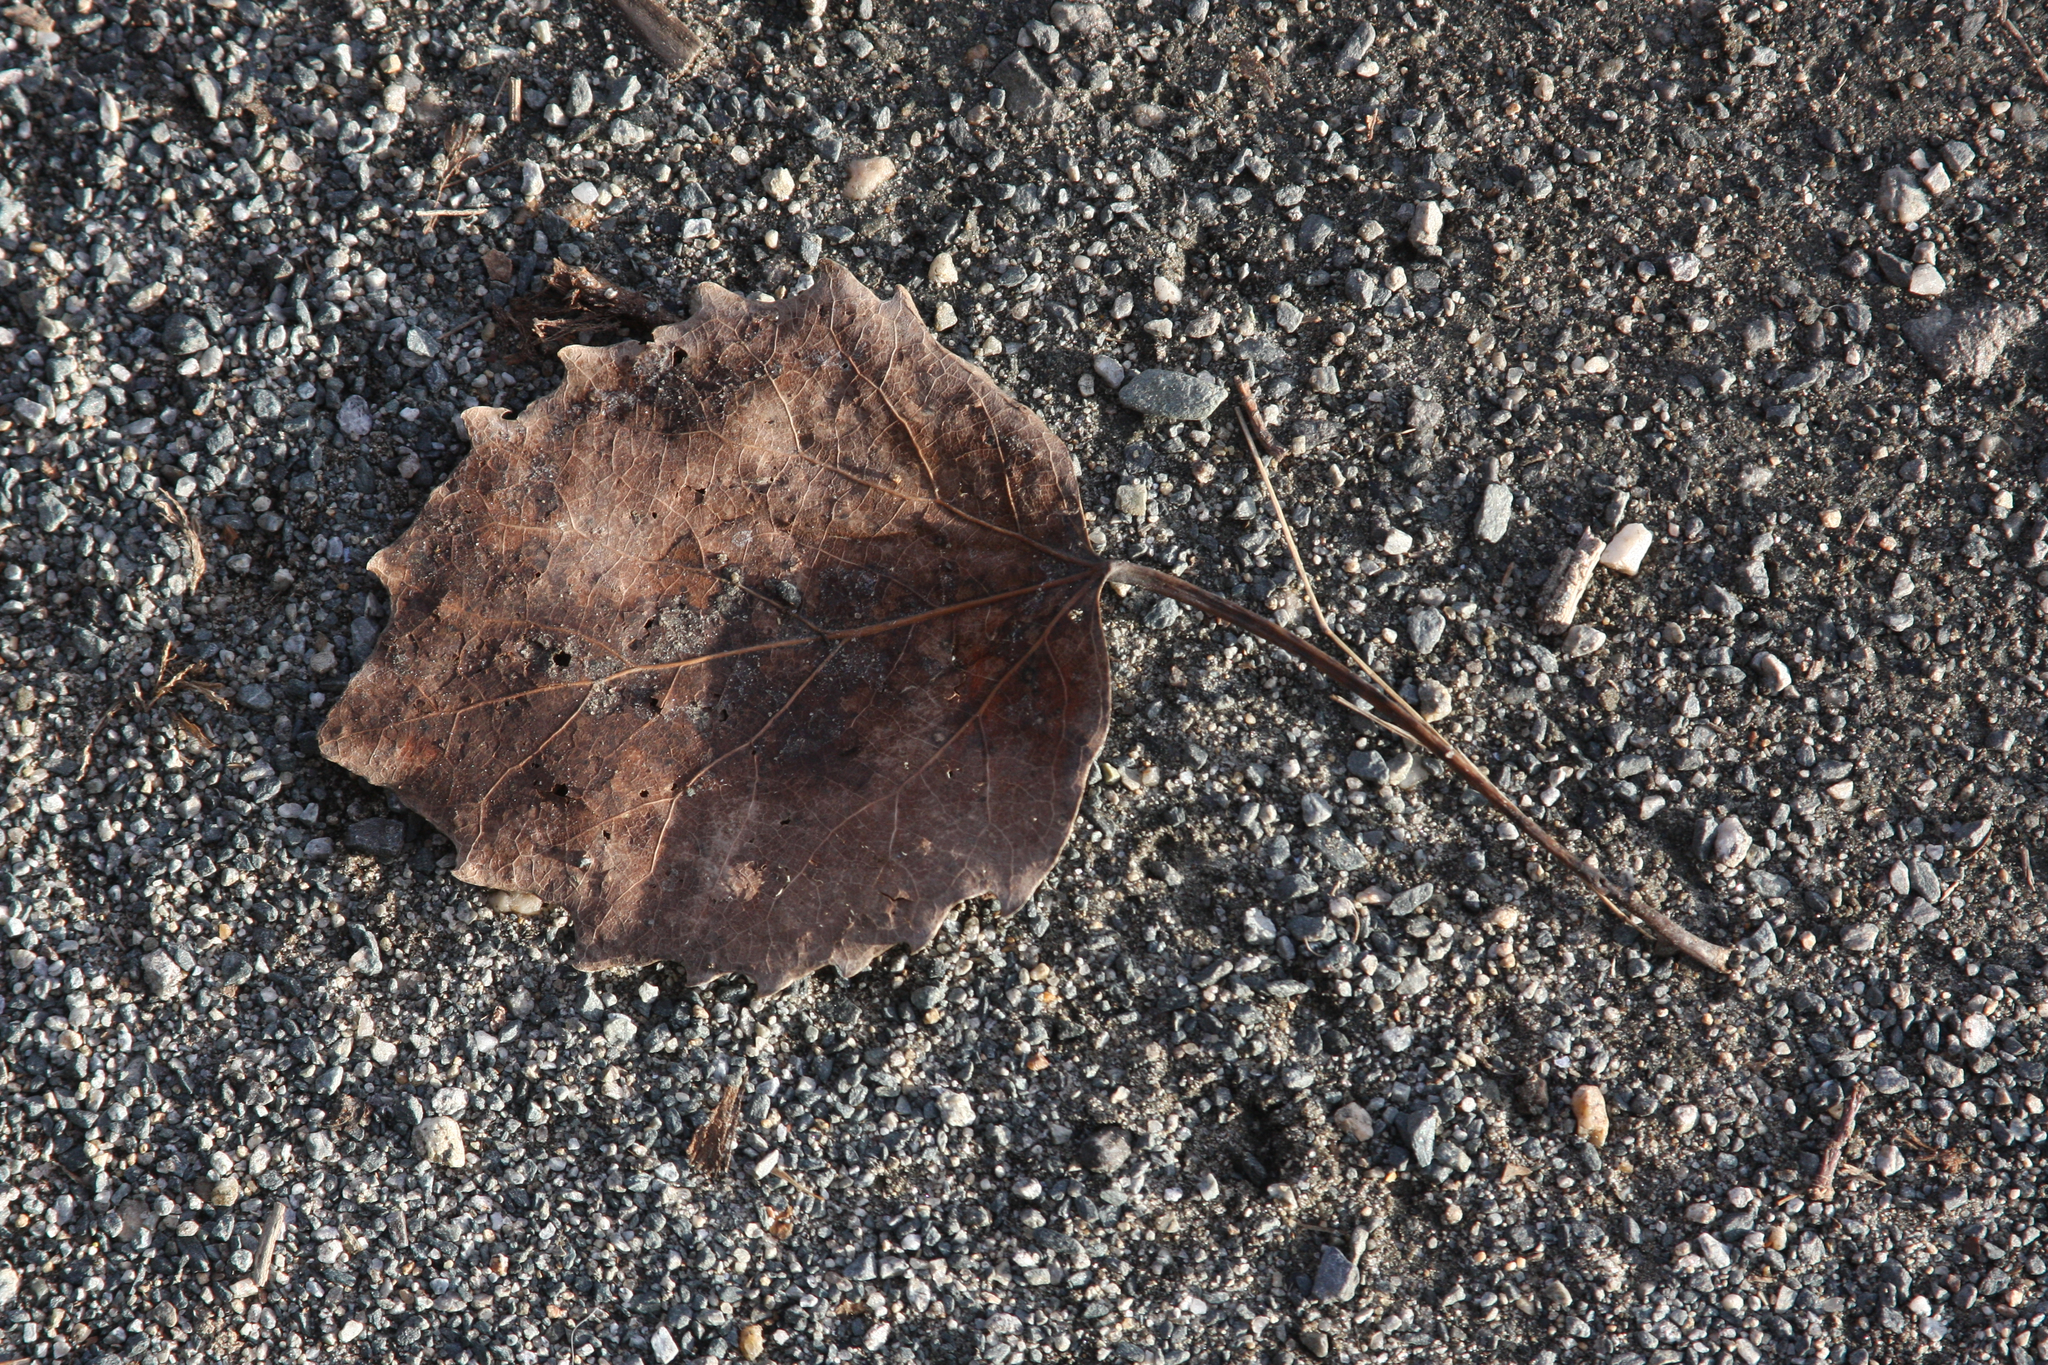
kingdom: Plantae
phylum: Tracheophyta
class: Magnoliopsida
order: Malpighiales
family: Salicaceae
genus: Populus
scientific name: Populus grandidentata
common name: Bigtooth aspen
